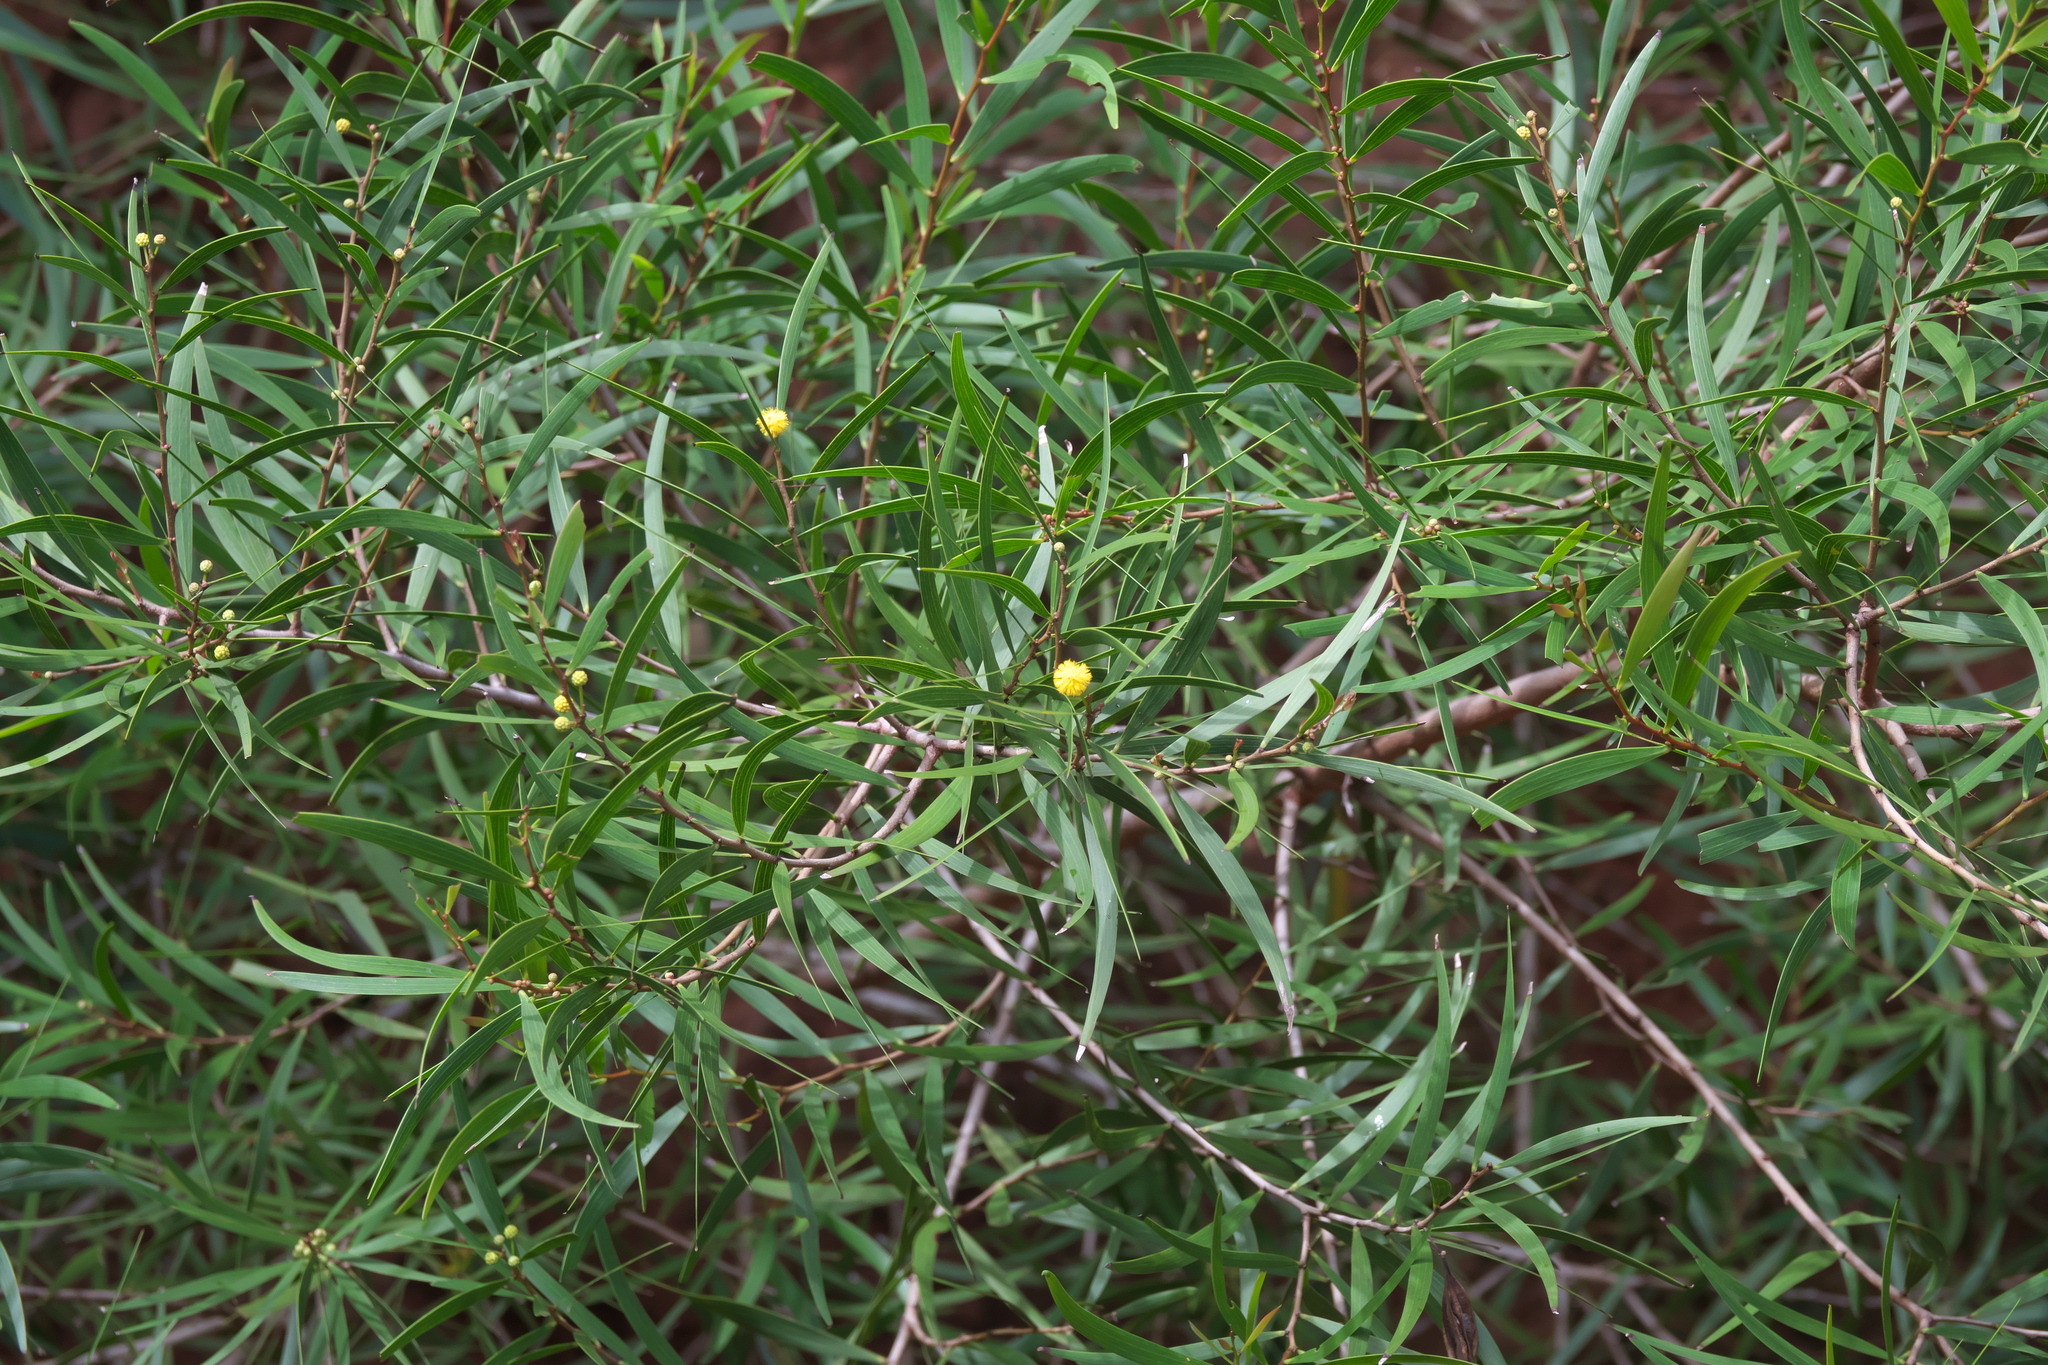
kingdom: Plantae
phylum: Tracheophyta
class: Magnoliopsida
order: Fabales
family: Fabaceae
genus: Acacia
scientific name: Acacia confusa
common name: Formosan koa
